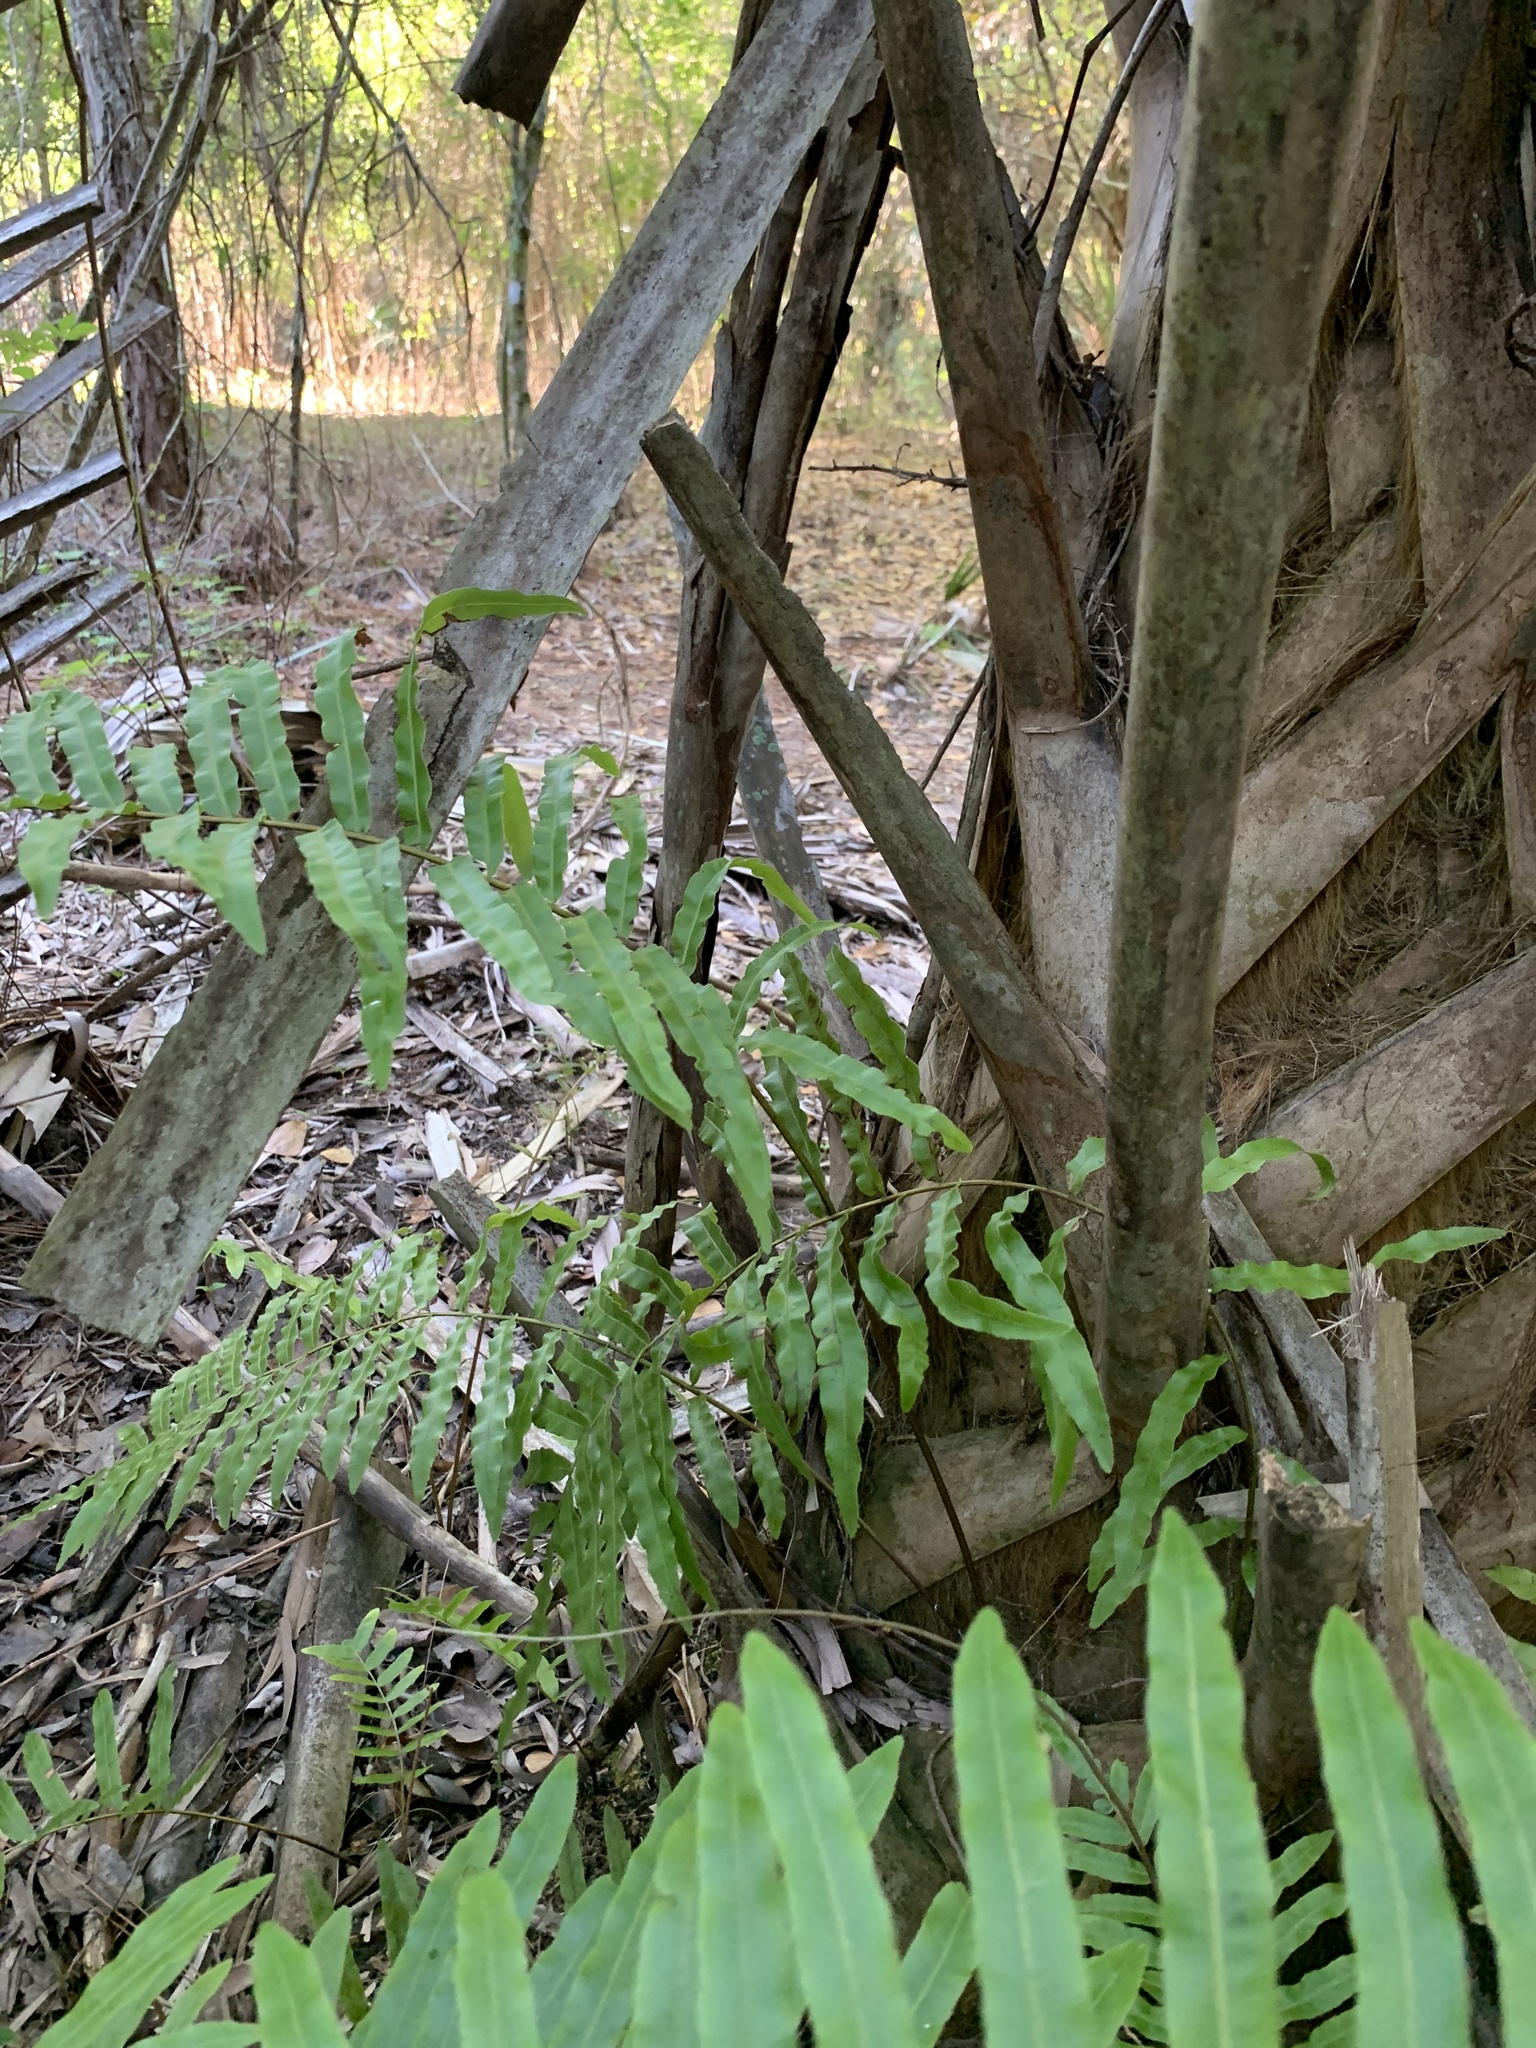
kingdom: Plantae
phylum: Tracheophyta
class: Polypodiopsida
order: Polypodiales
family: Blechnaceae
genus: Telmatoblechnum
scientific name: Telmatoblechnum serrulatum
